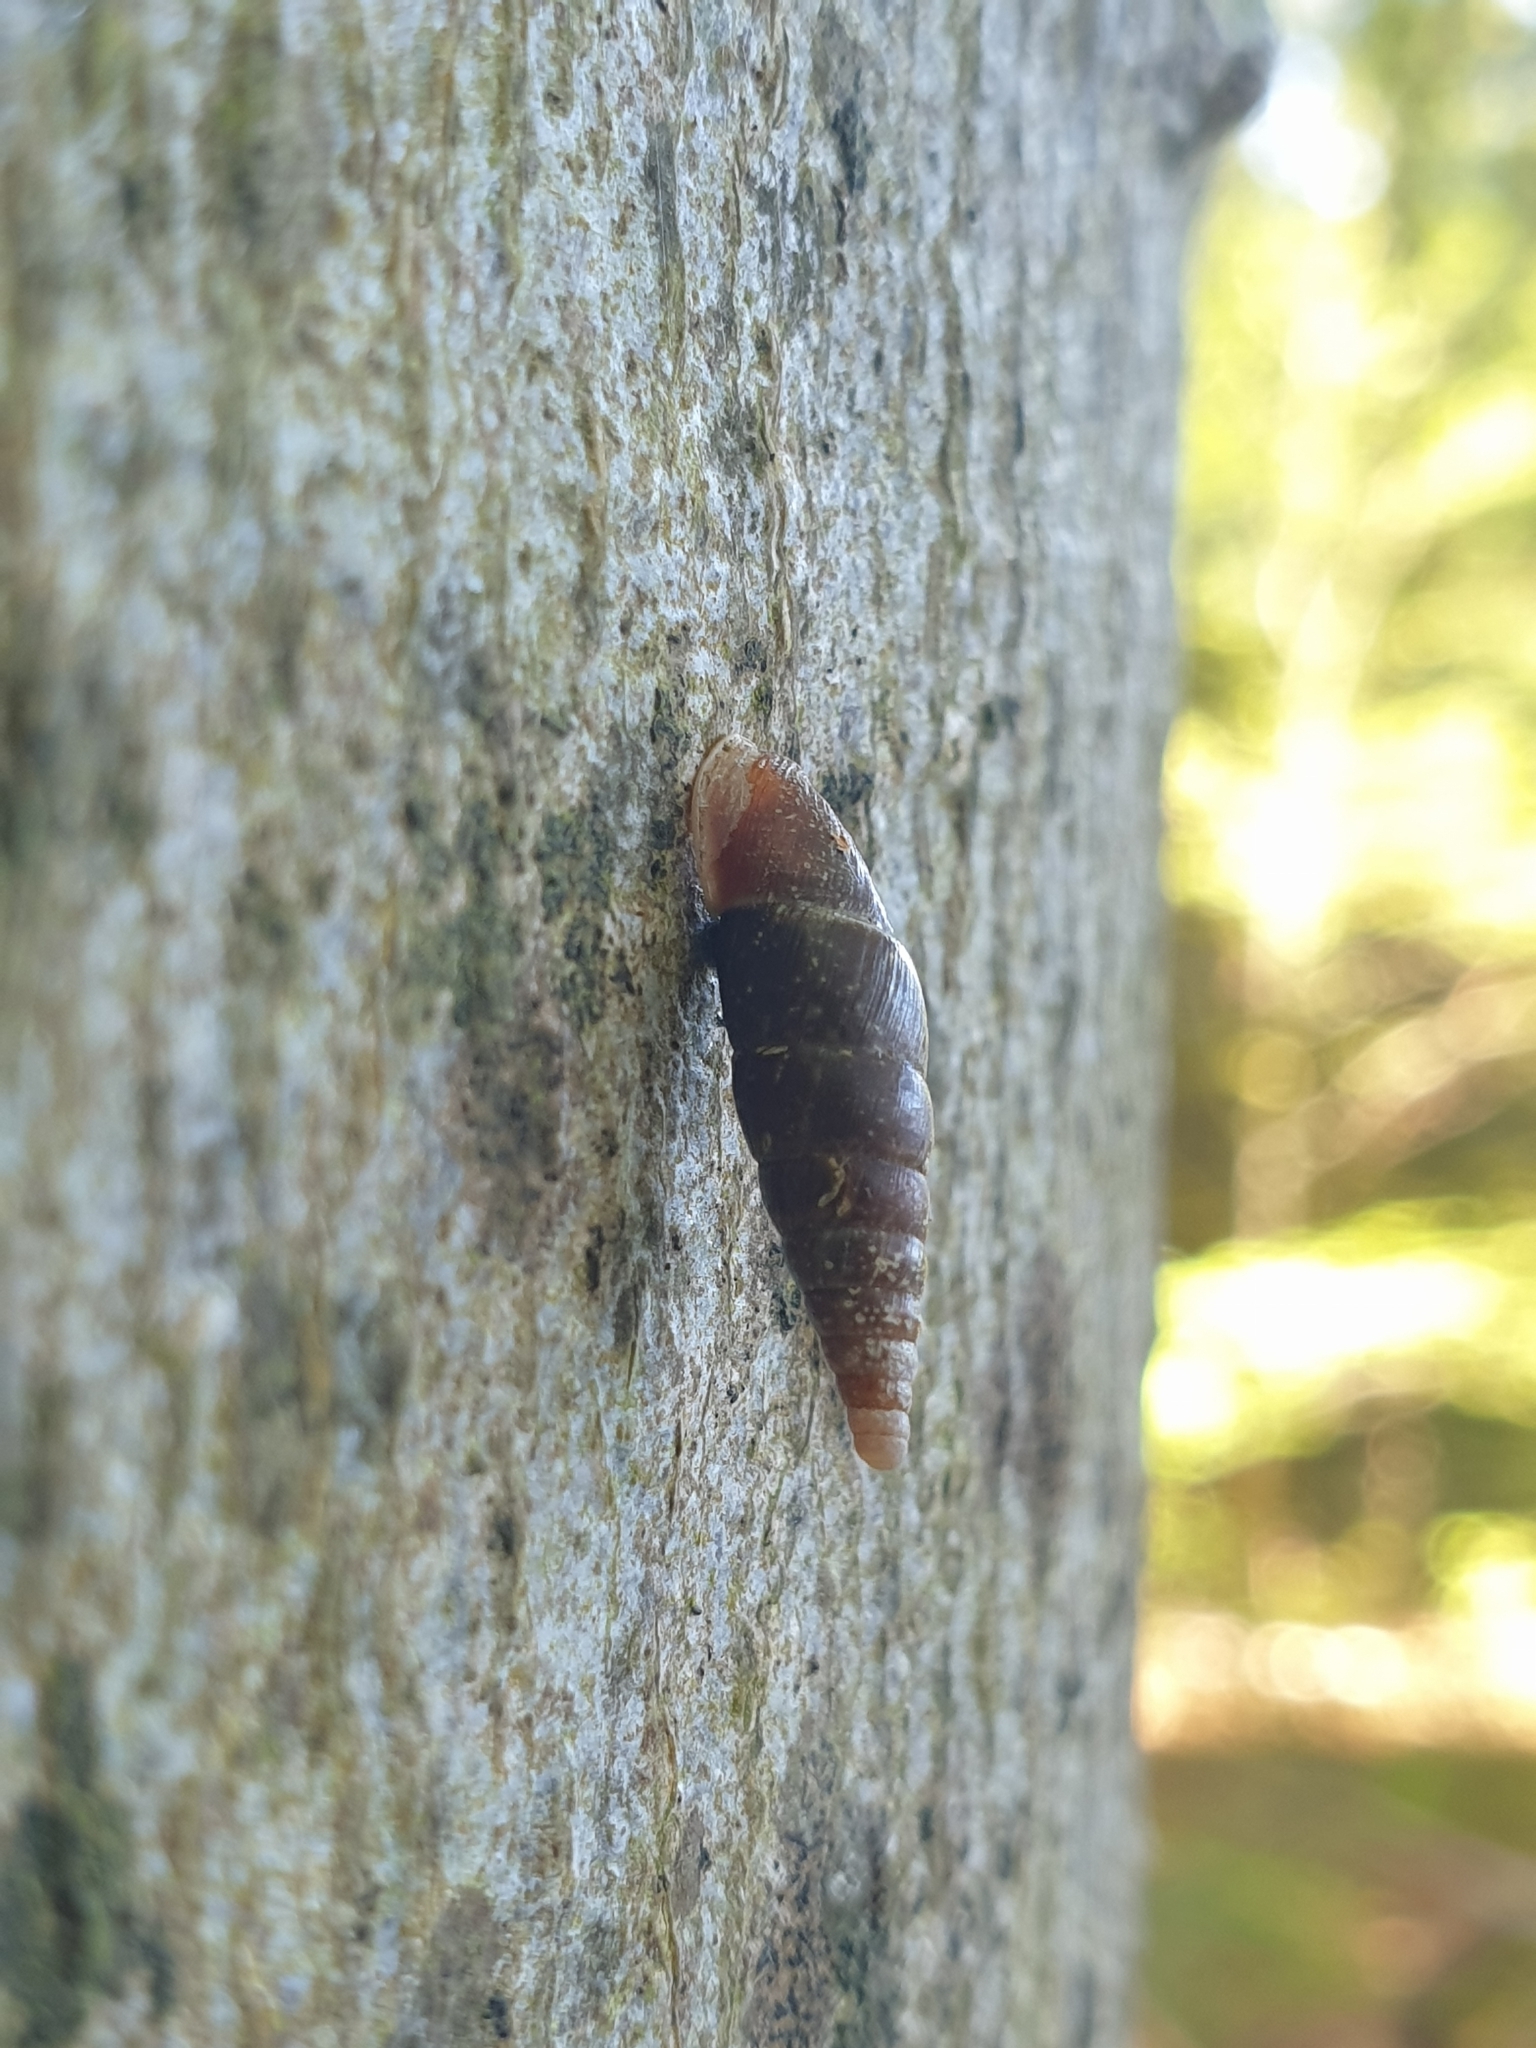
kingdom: Animalia
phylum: Mollusca
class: Gastropoda
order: Stylommatophora
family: Clausiliidae
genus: Cochlodina
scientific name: Cochlodina laminata
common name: Plaited door snail
